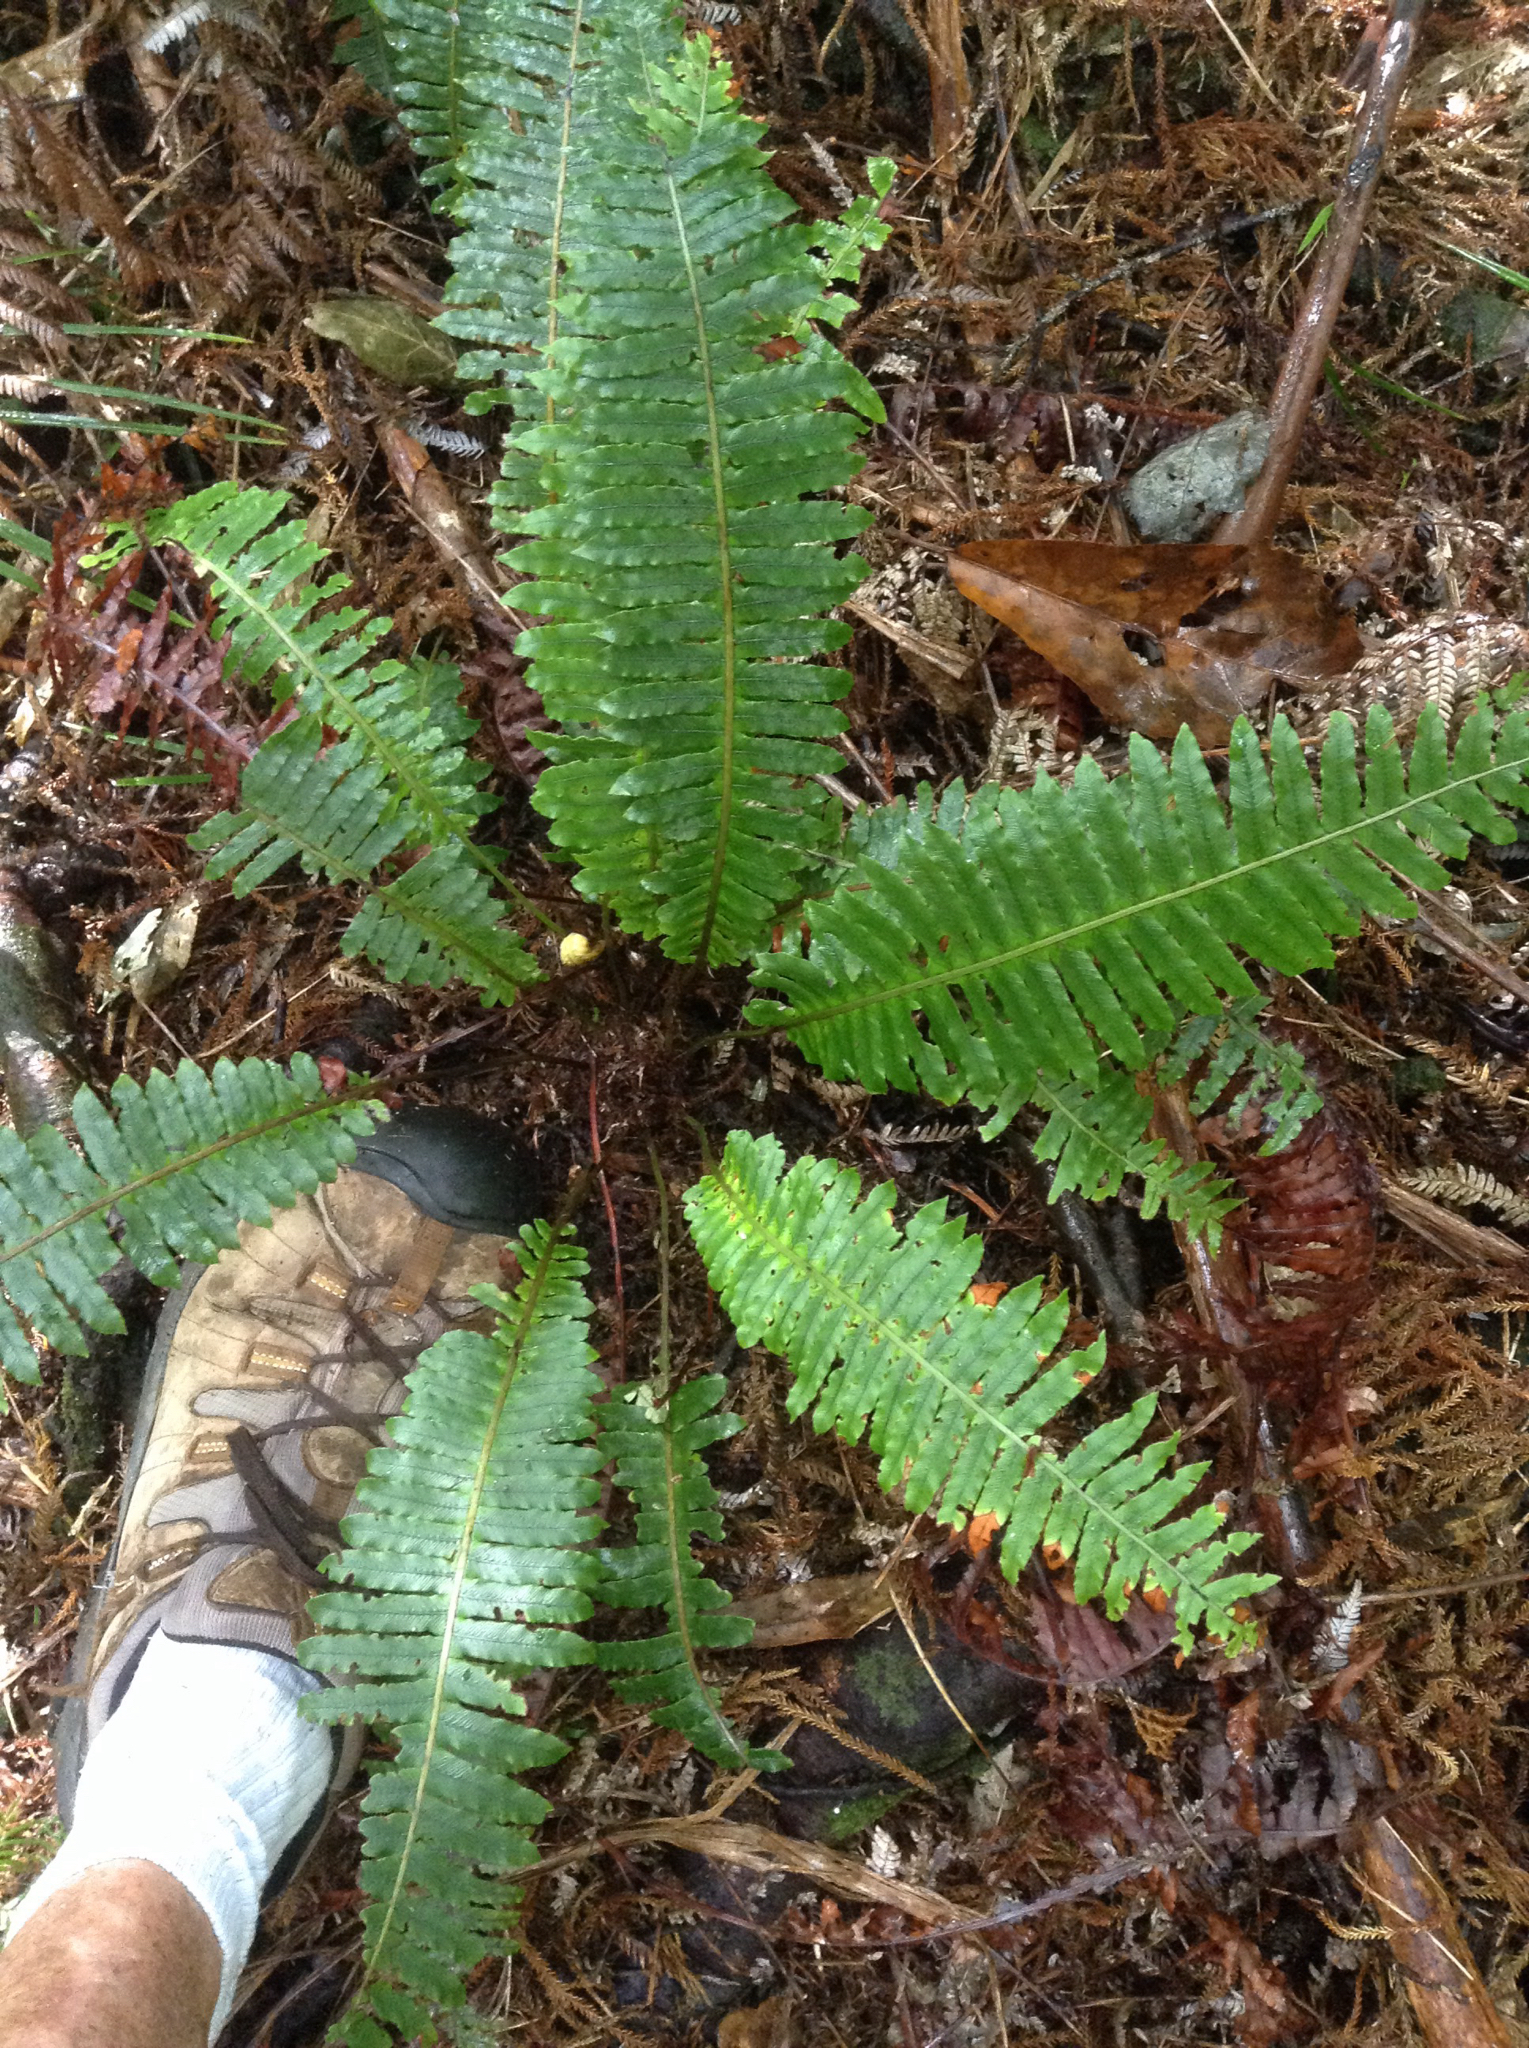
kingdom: Plantae
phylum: Tracheophyta
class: Polypodiopsida
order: Polypodiales
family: Blechnaceae
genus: Lomaria
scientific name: Lomaria discolor
